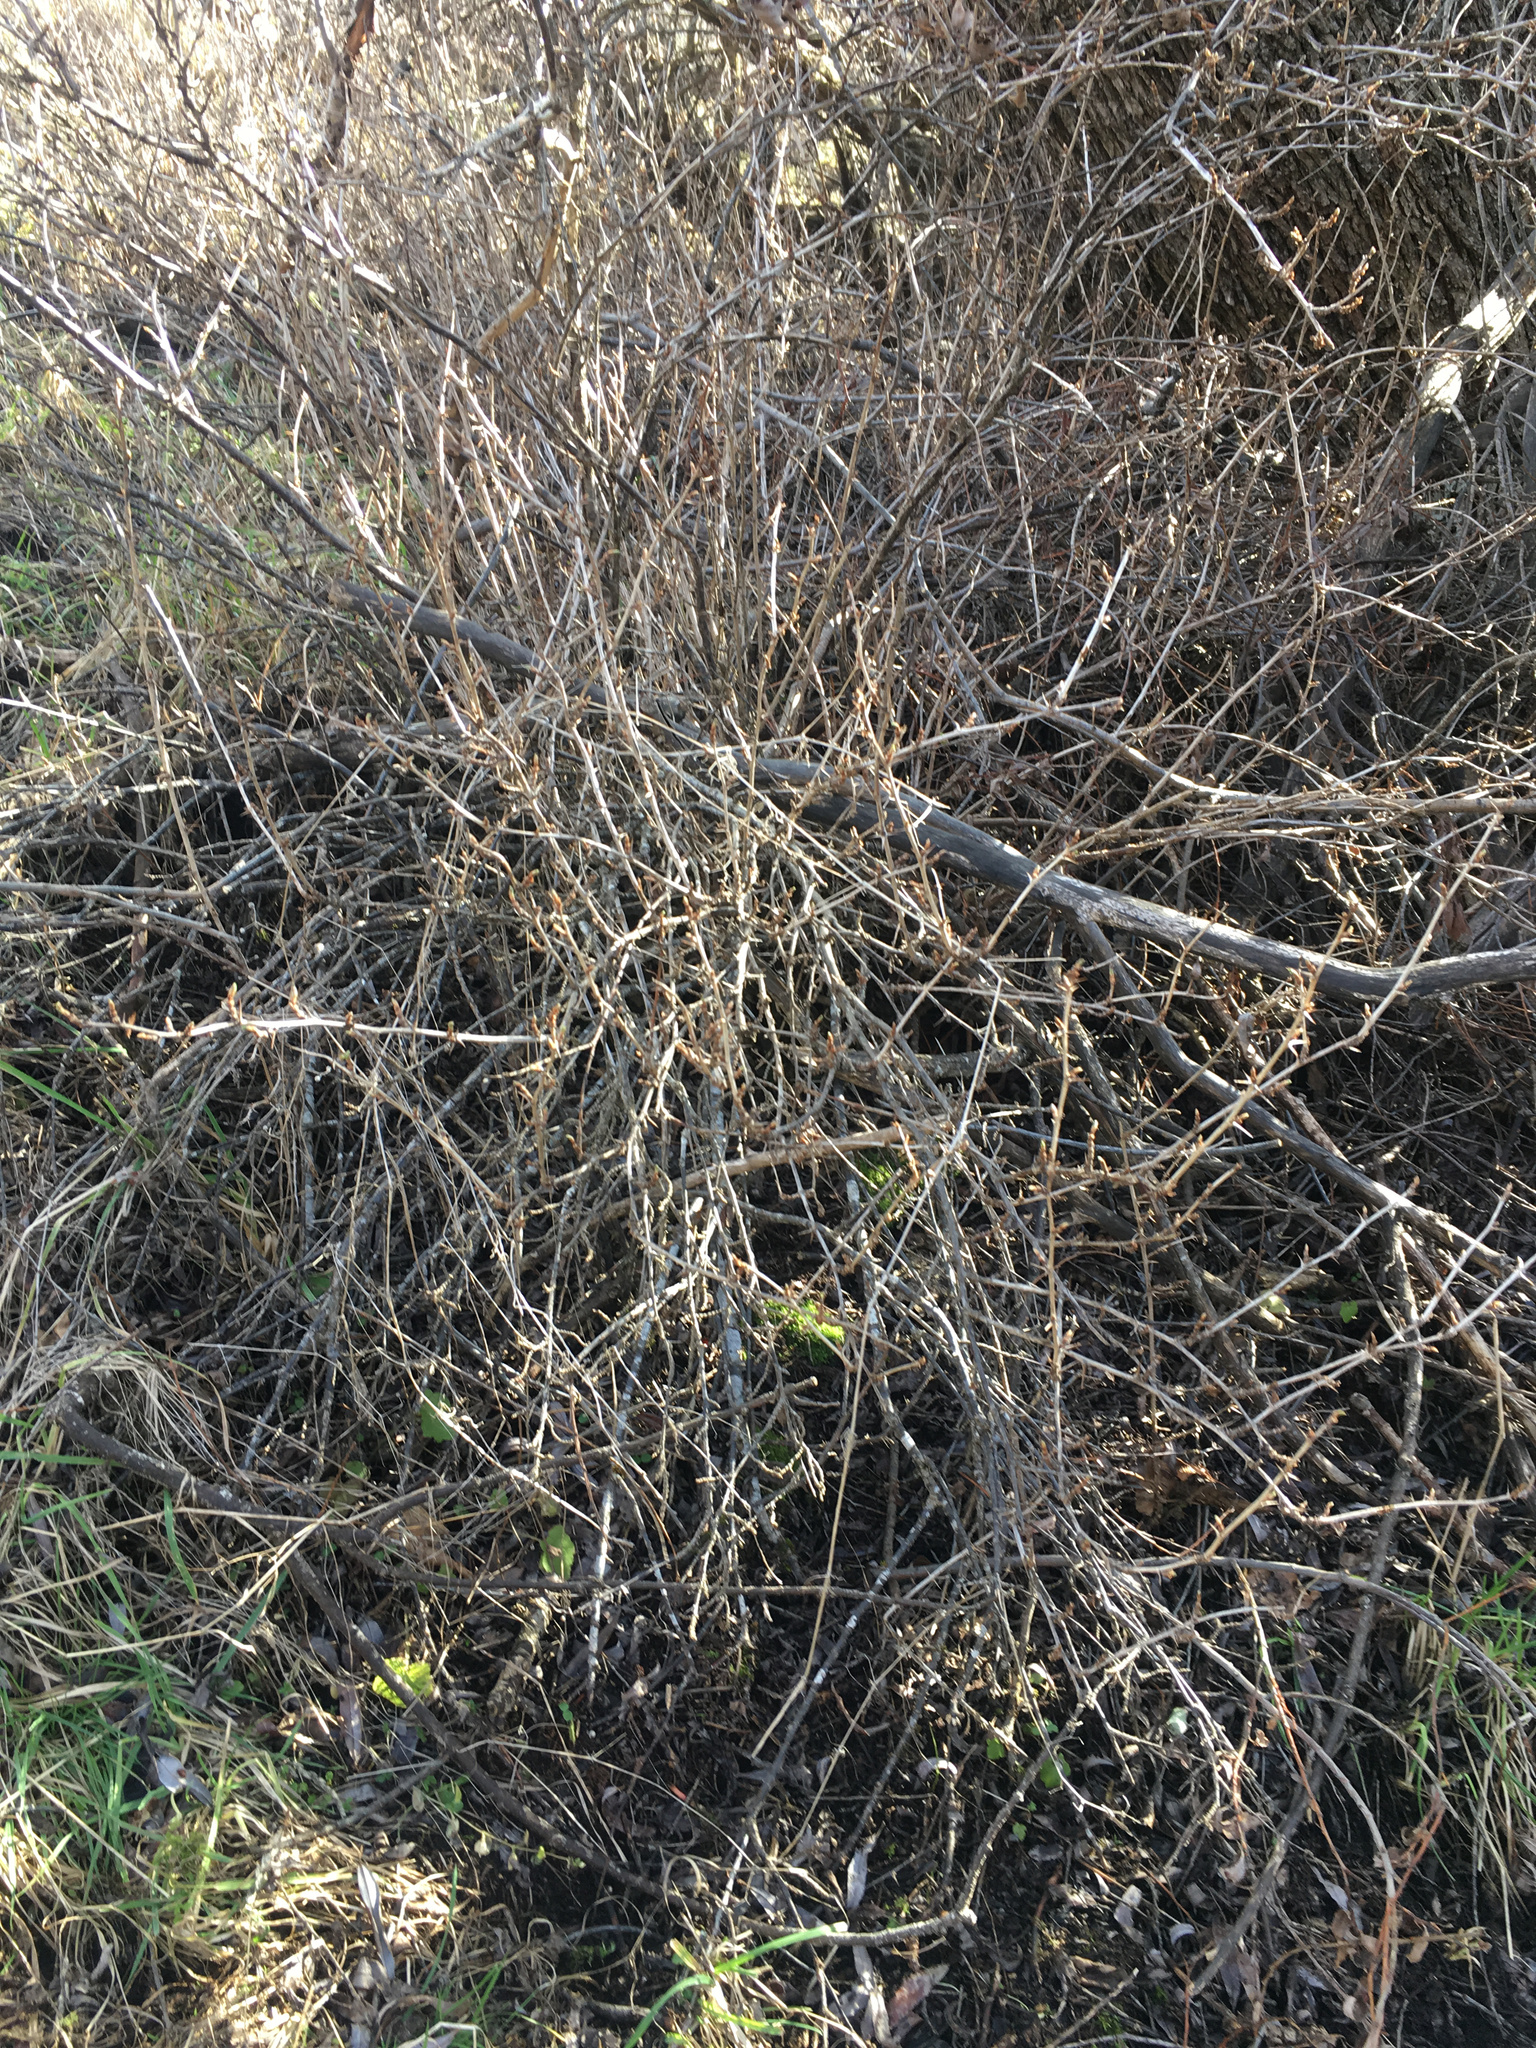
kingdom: Plantae
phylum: Tracheophyta
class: Magnoliopsida
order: Saxifragales
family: Grossulariaceae
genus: Ribes
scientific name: Ribes uva-crispa
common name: Gooseberry
